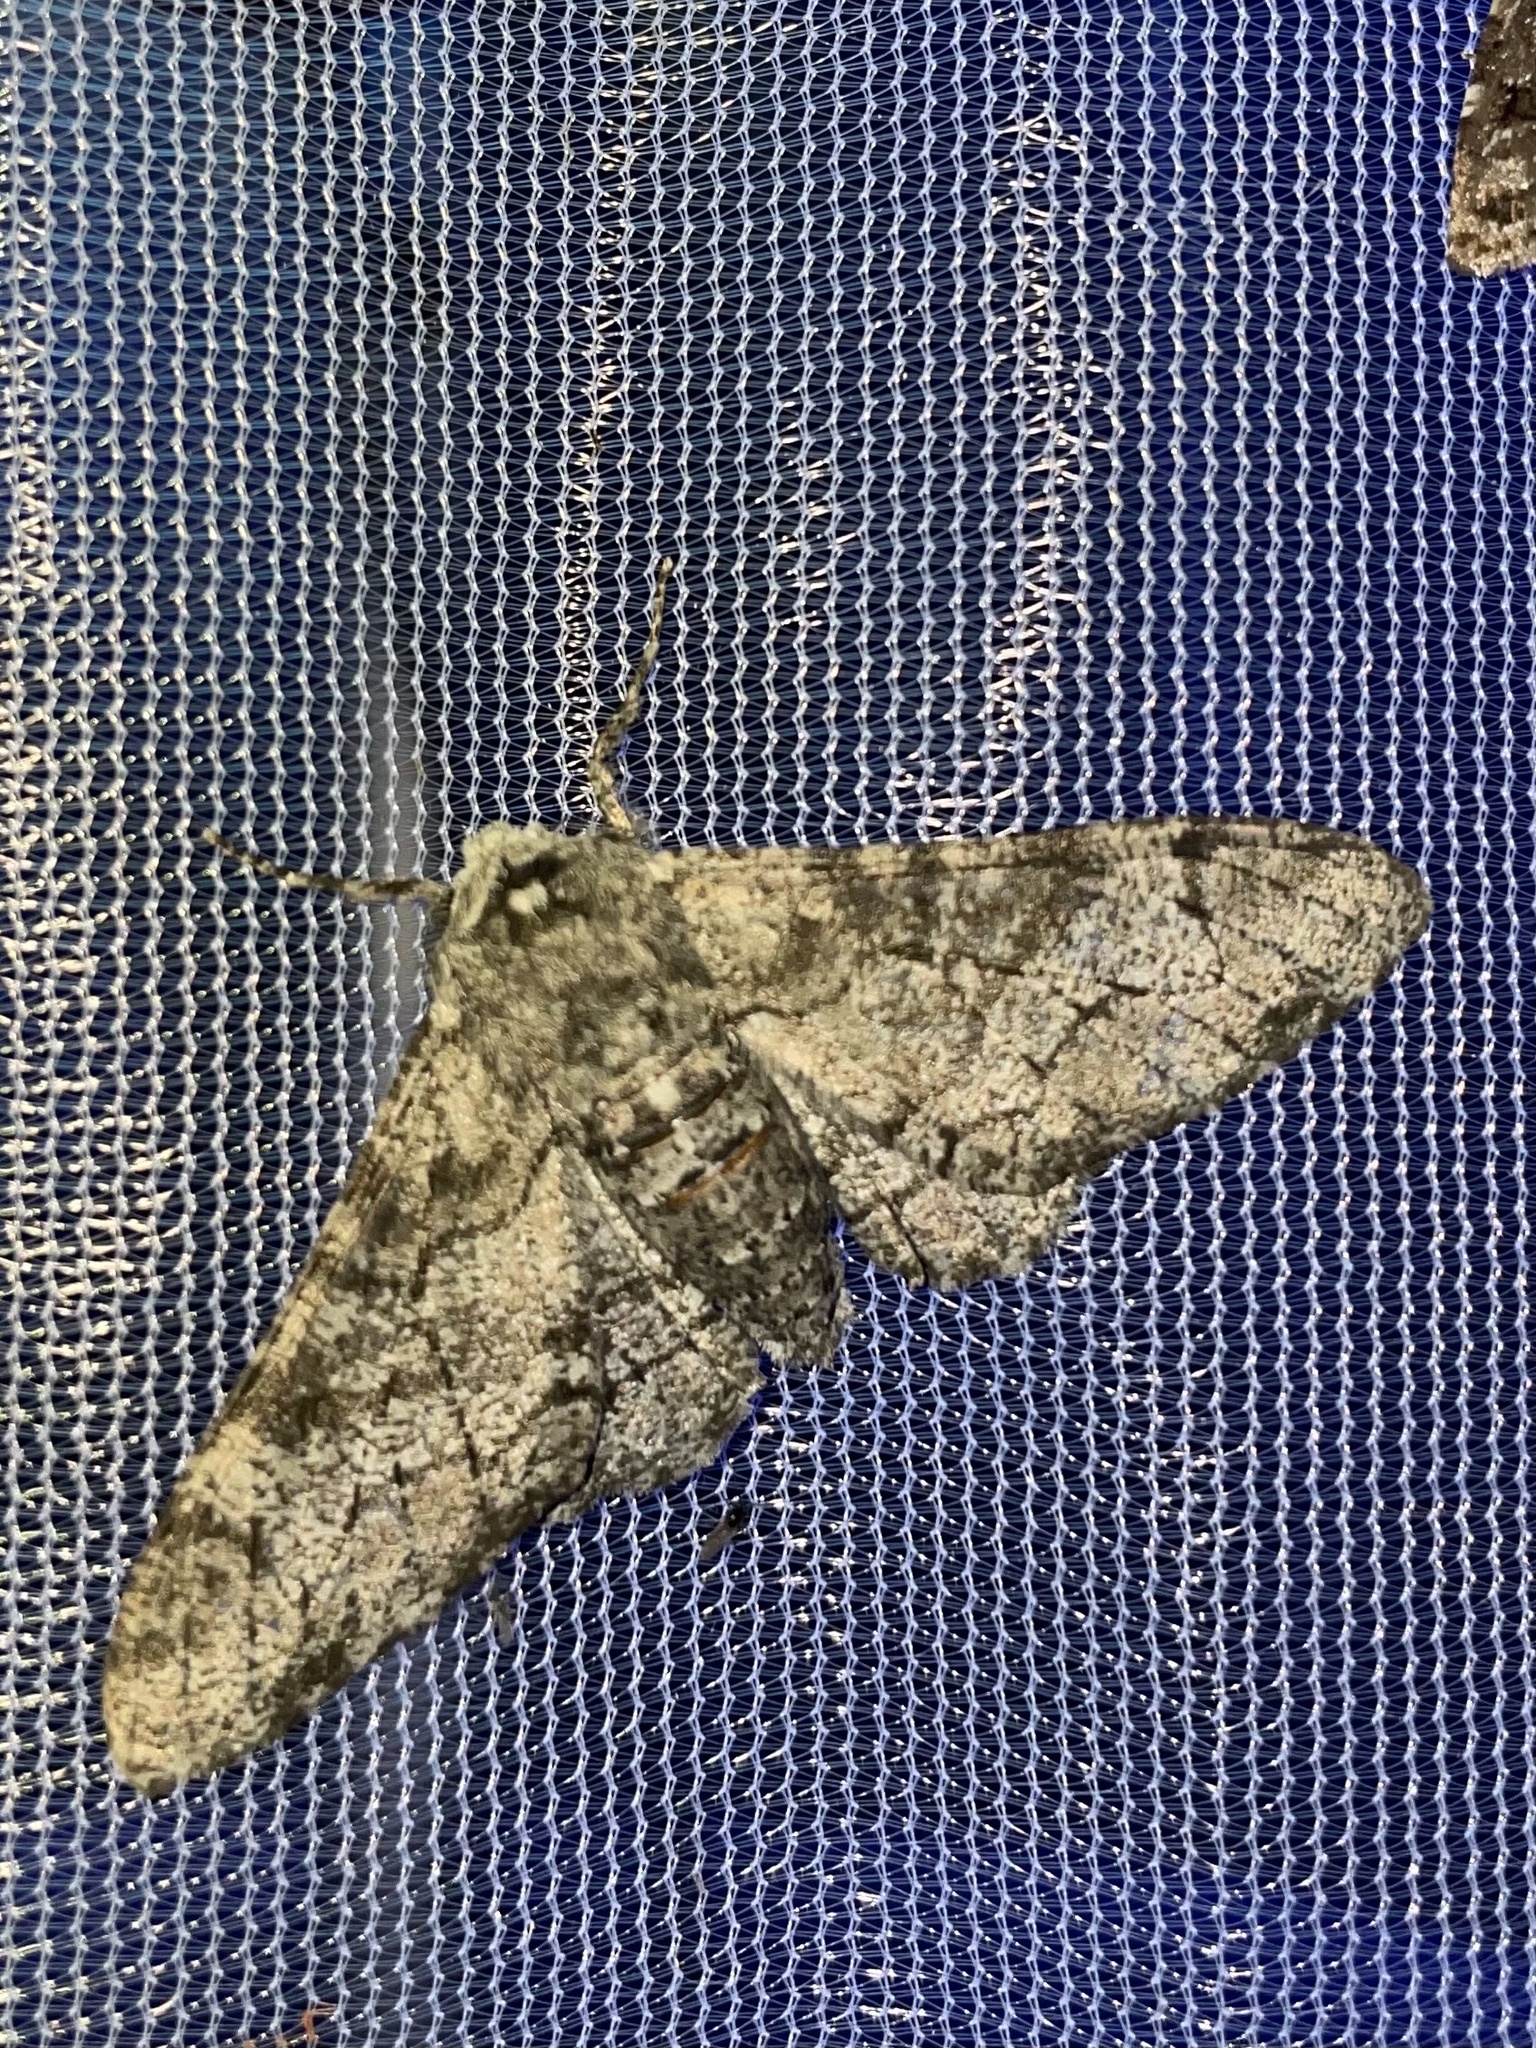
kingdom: Animalia
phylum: Arthropoda
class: Insecta
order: Lepidoptera
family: Geometridae
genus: Biston
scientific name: Biston betularia
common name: Peppered moth
